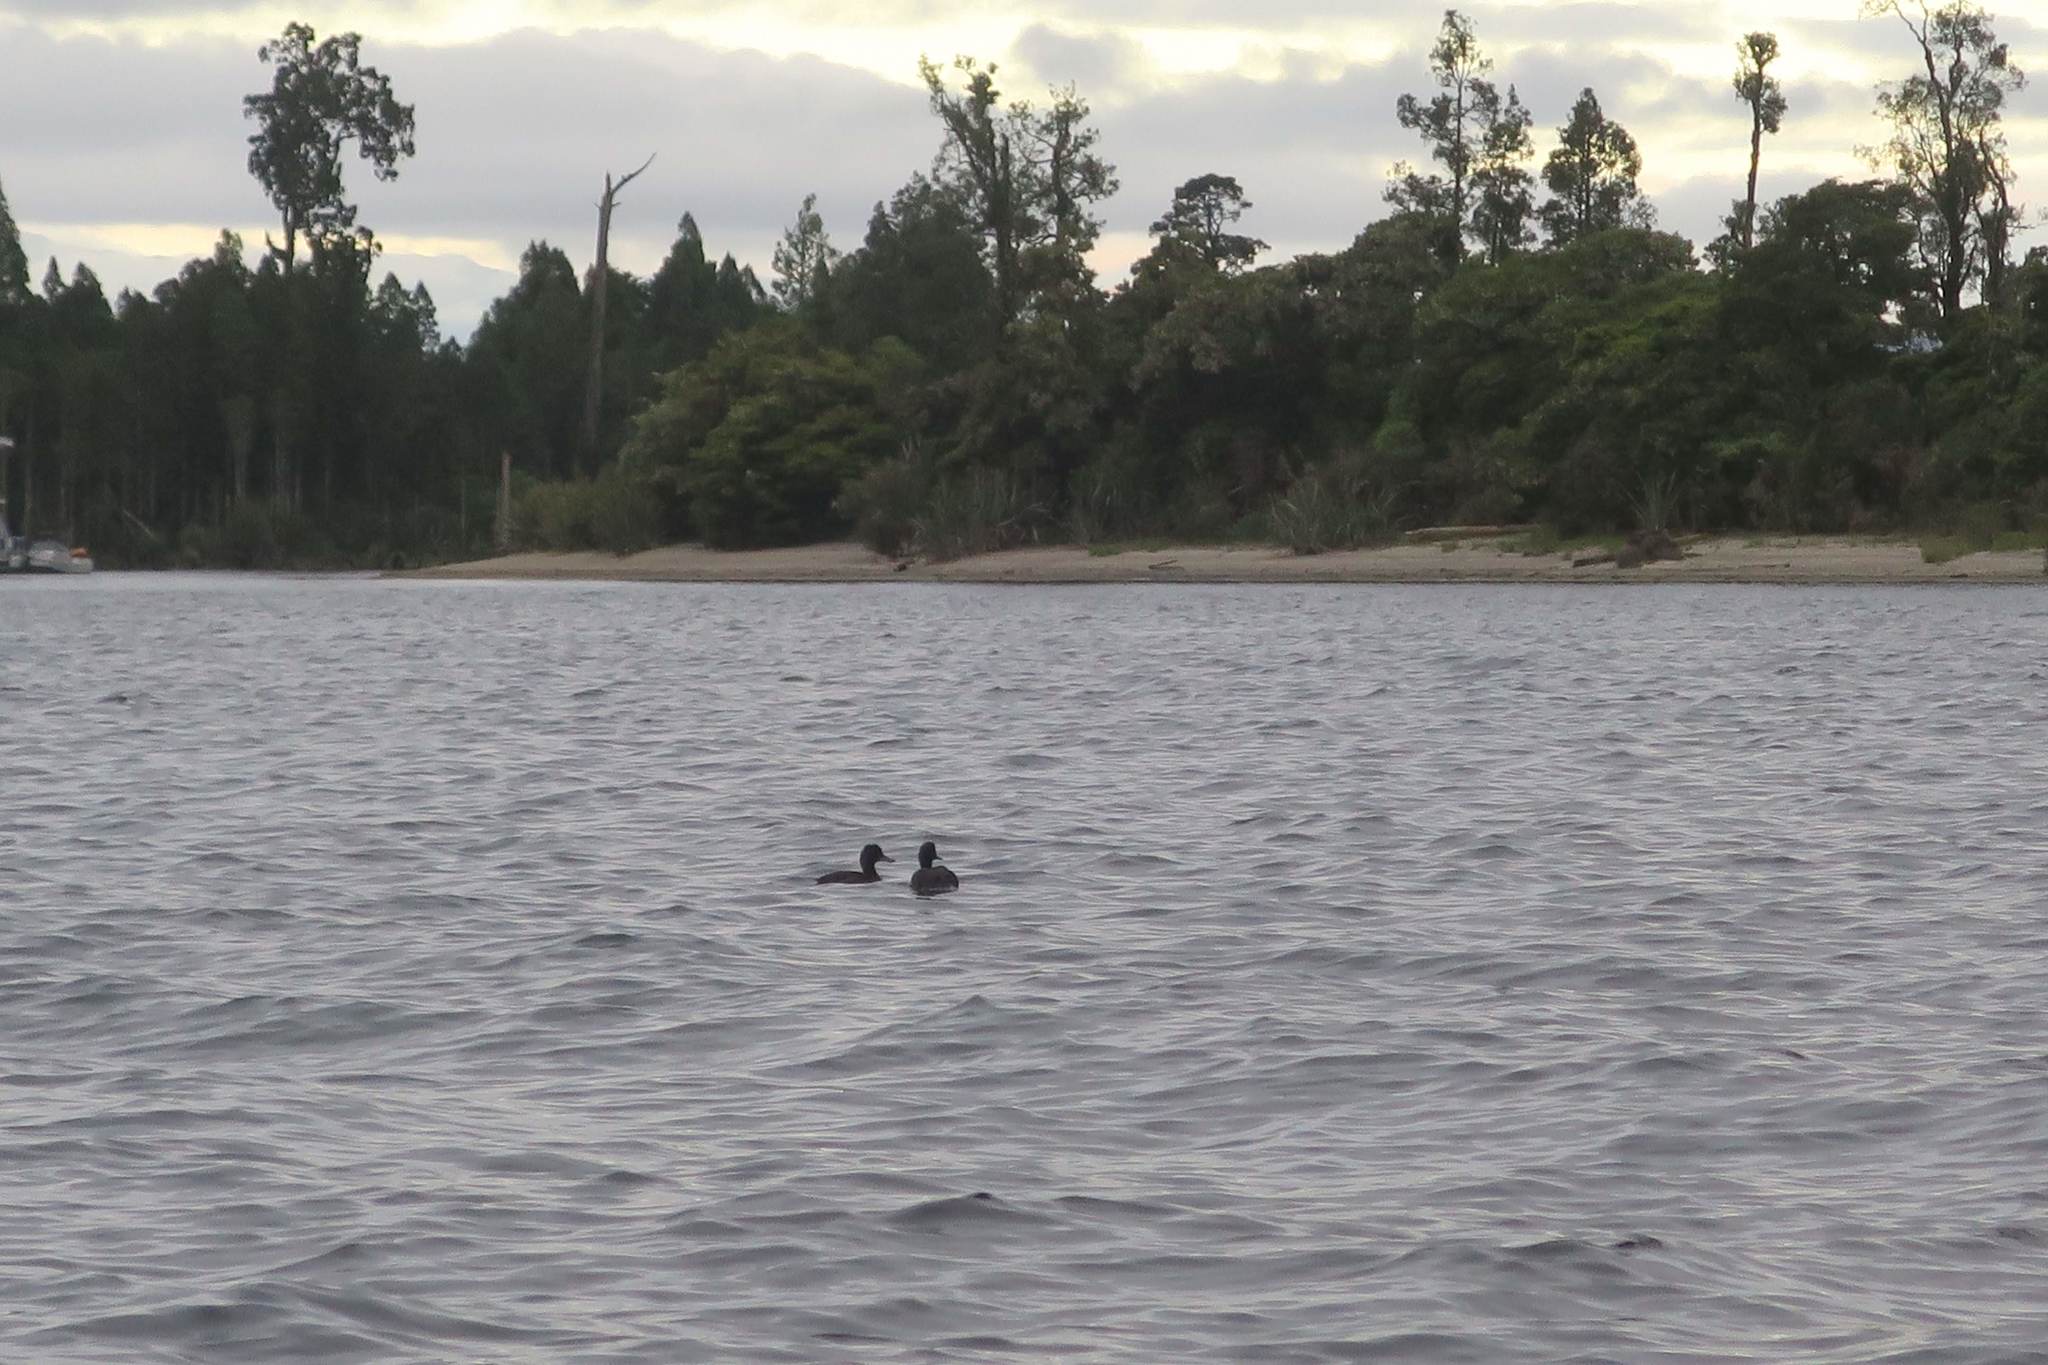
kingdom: Animalia
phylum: Chordata
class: Aves
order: Anseriformes
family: Anatidae
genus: Aythya
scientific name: Aythya novaeseelandiae
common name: New zealand scaup
